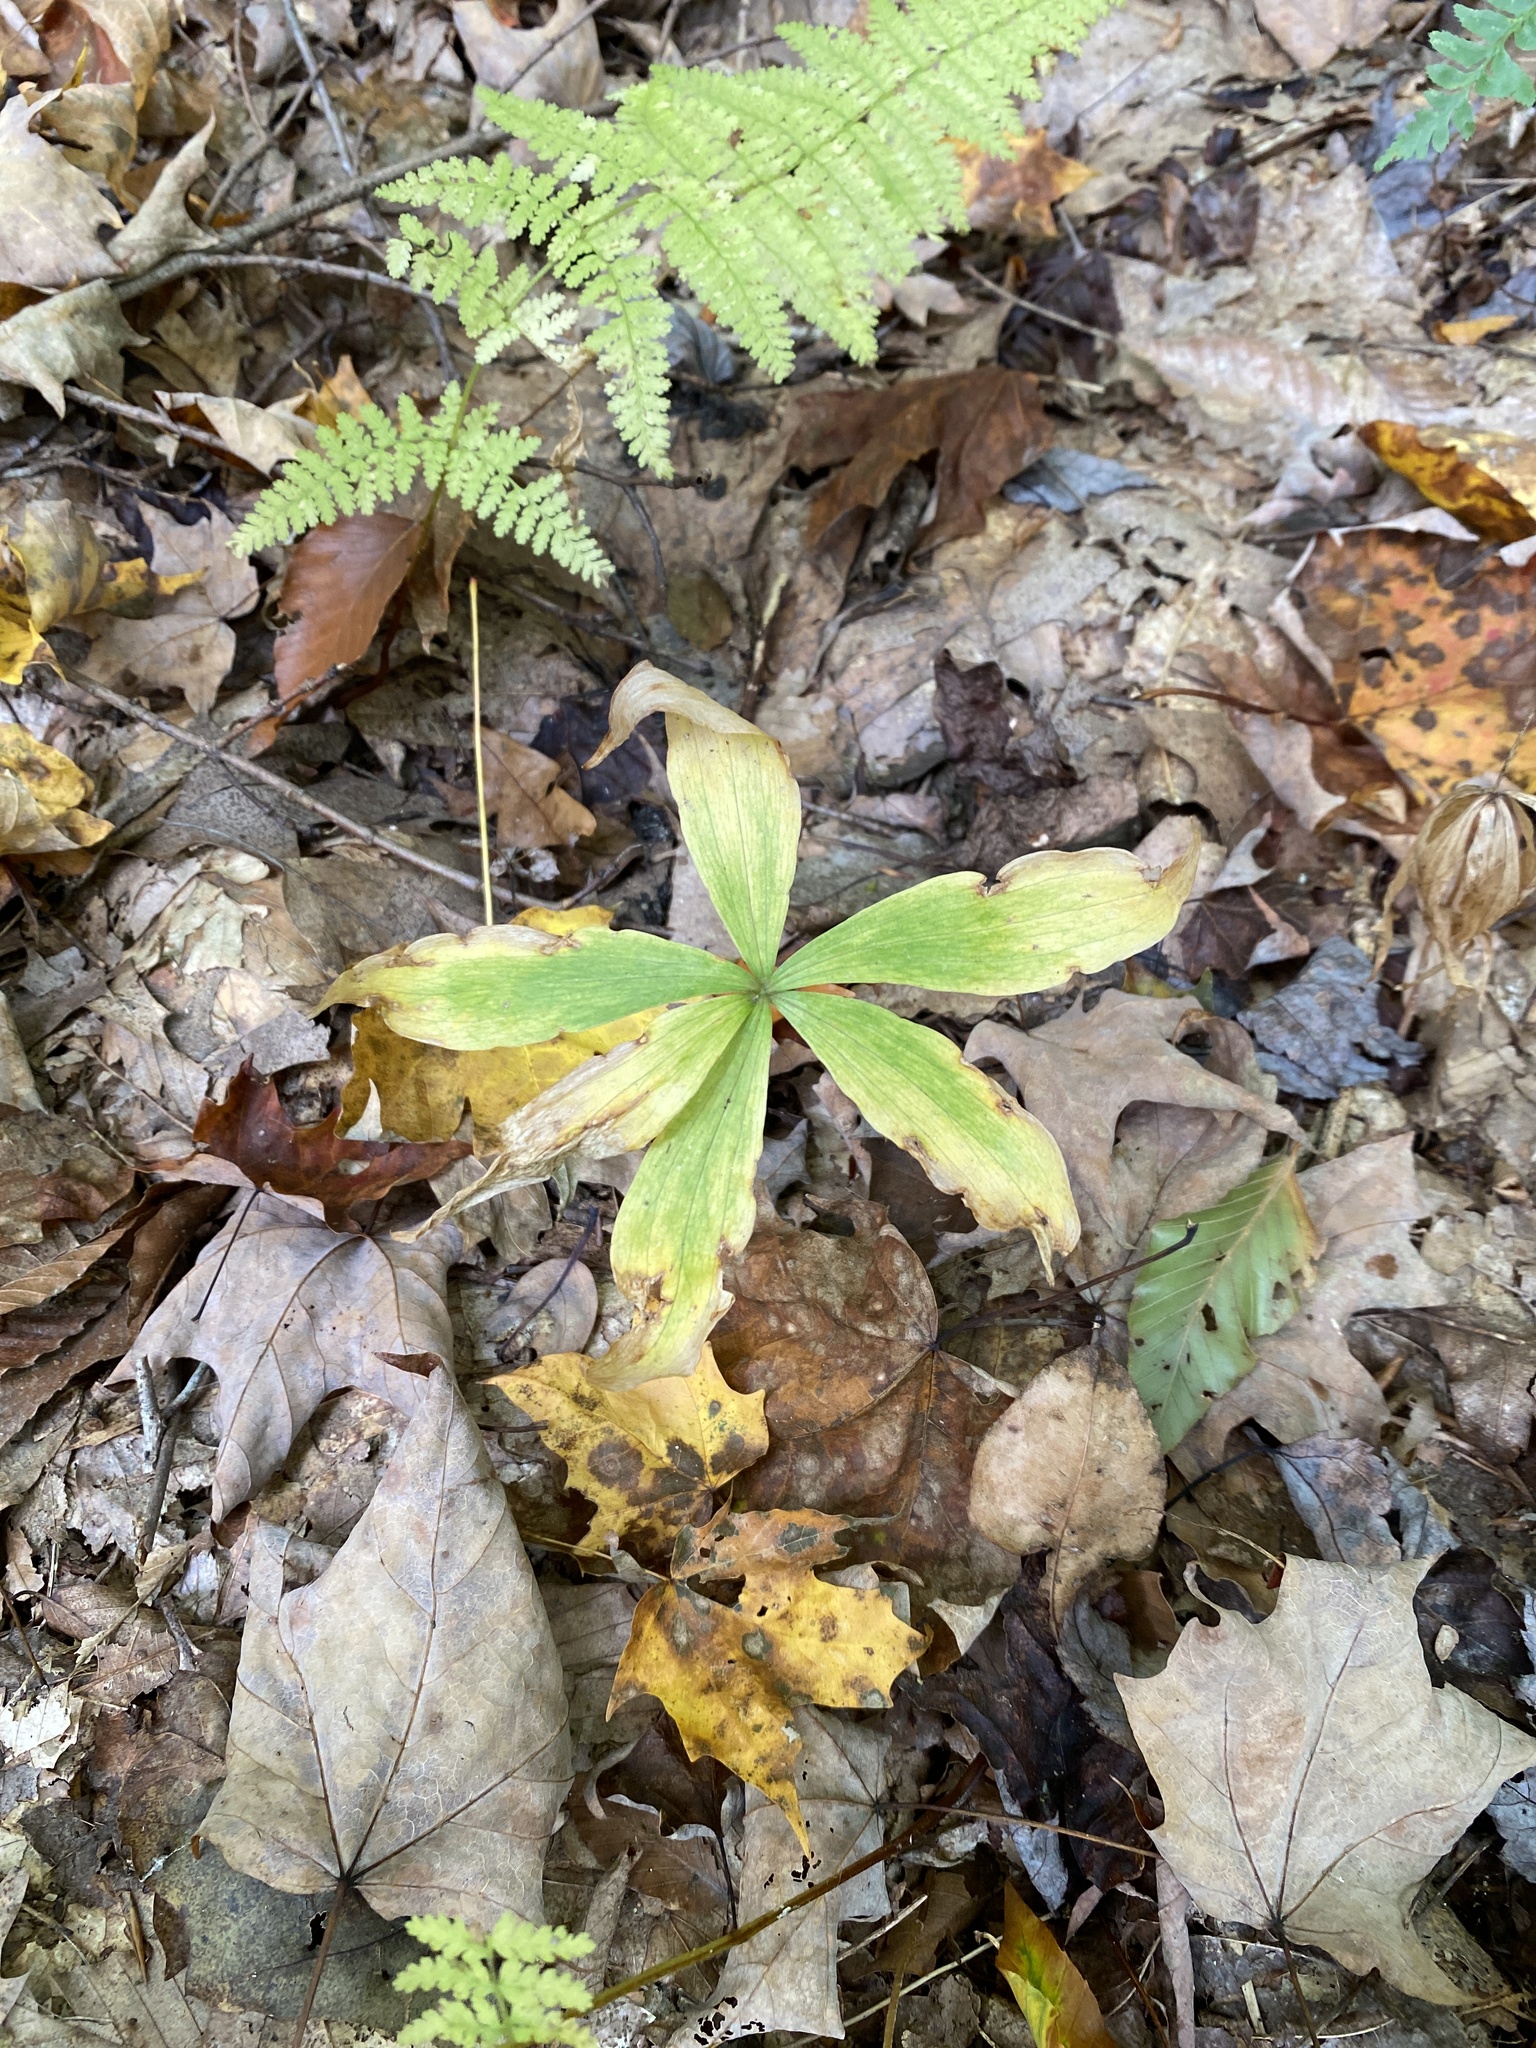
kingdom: Plantae
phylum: Tracheophyta
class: Liliopsida
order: Liliales
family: Liliaceae
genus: Medeola
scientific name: Medeola virginiana
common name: Indian cucumber-root
